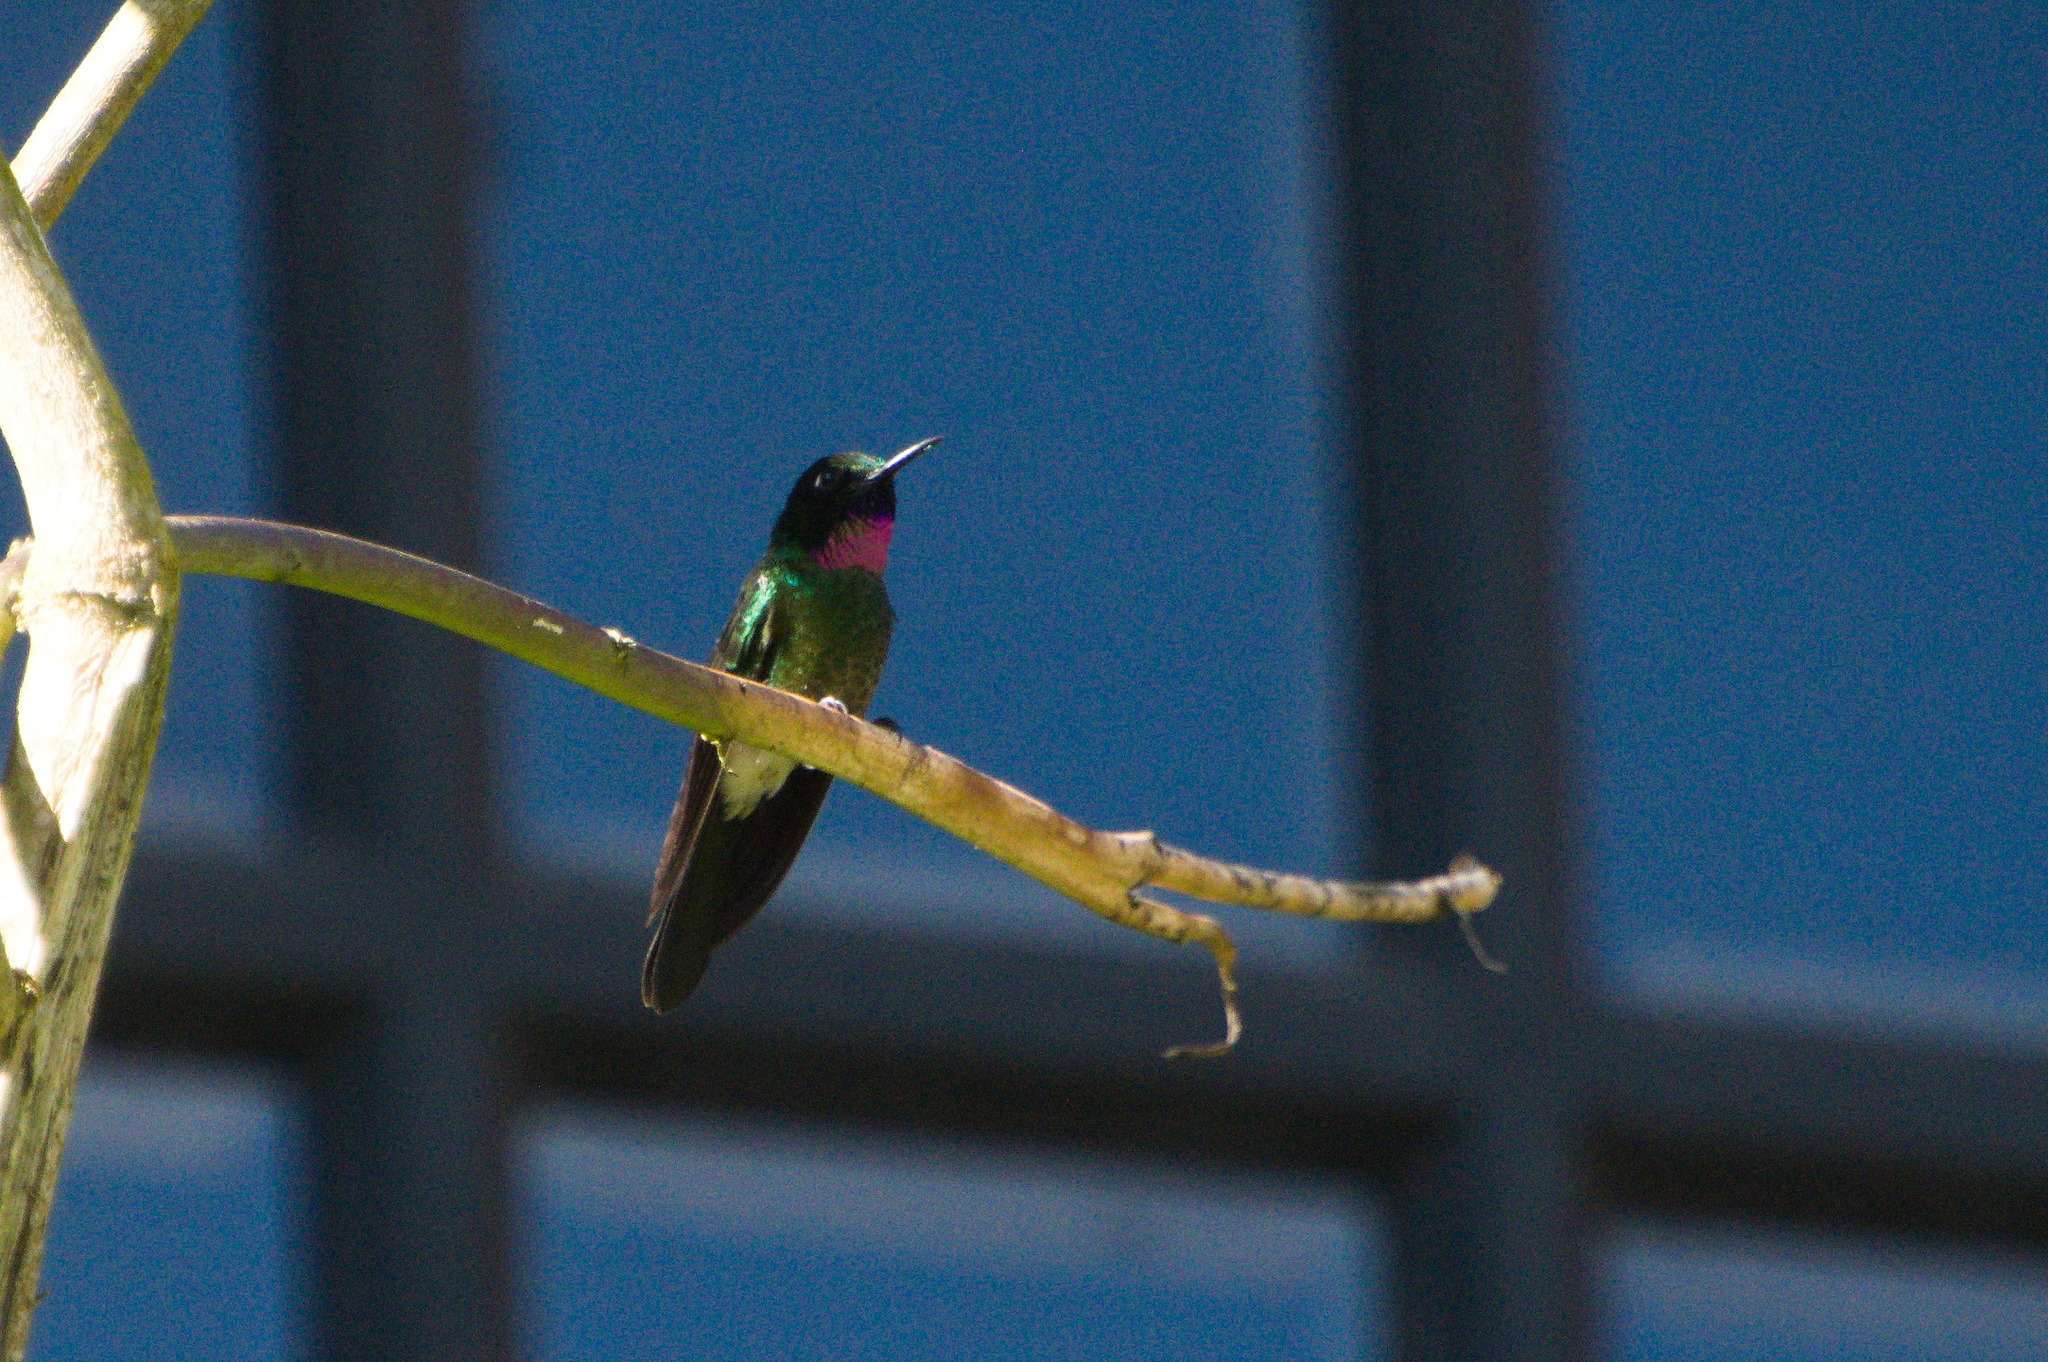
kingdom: Animalia
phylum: Chordata
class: Aves
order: Apodiformes
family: Trochilidae
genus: Heliangelus
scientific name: Heliangelus exortis
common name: Tourmaline sunangel
